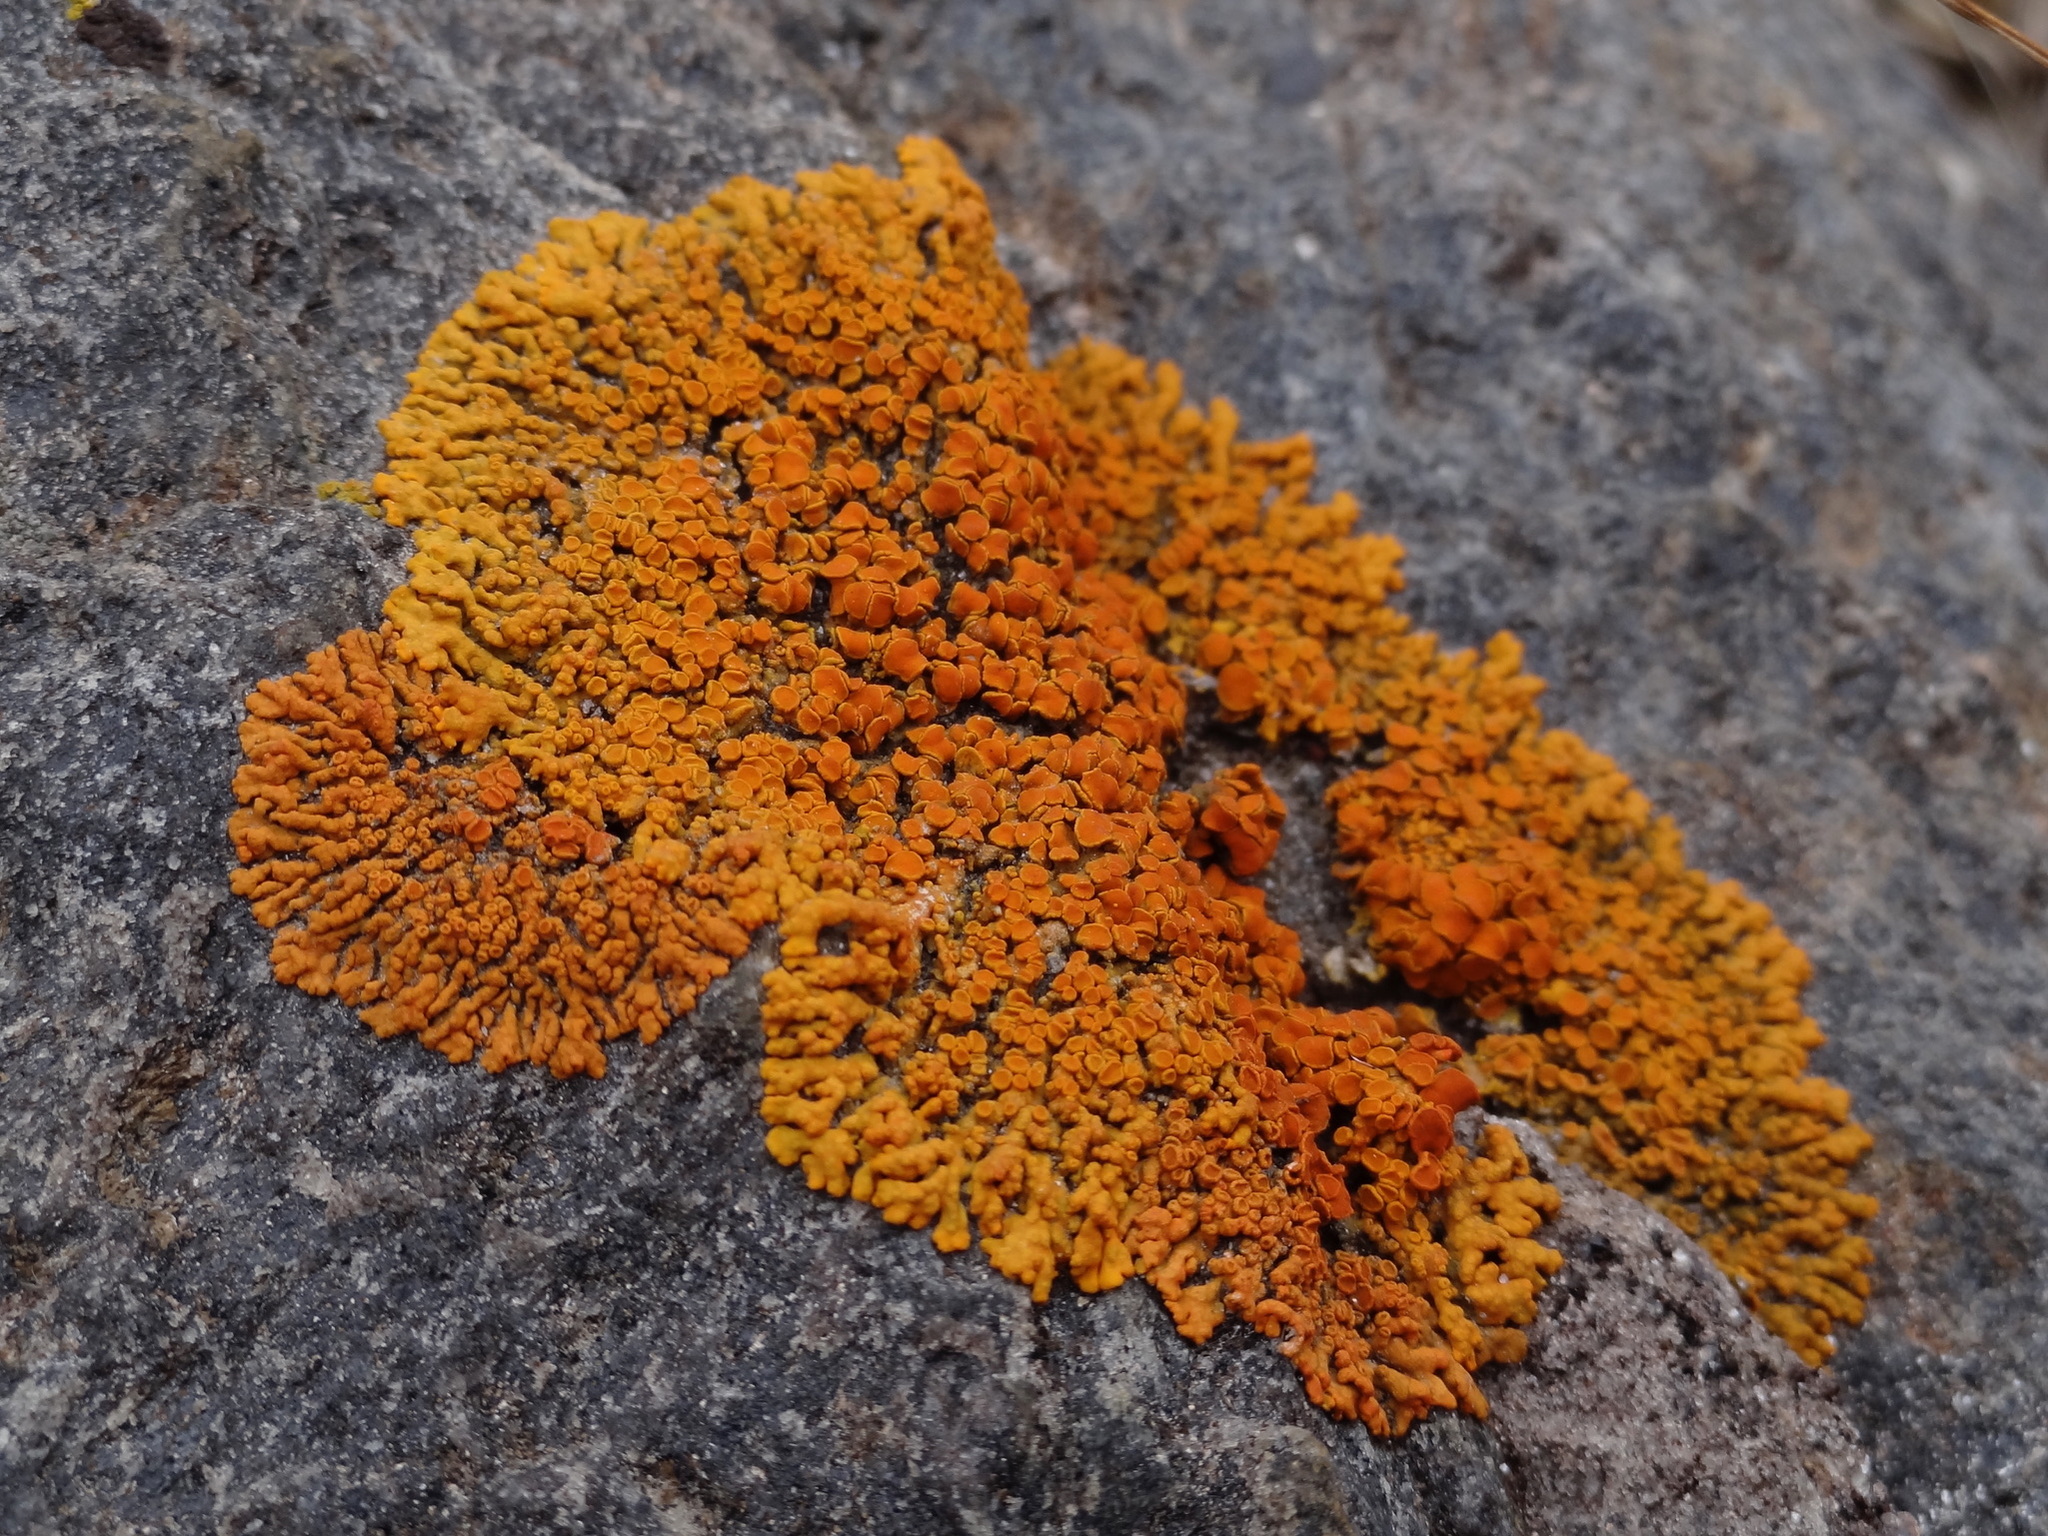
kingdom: Fungi
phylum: Ascomycota
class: Lecanoromycetes
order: Teloschistales
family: Teloschistaceae
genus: Xanthoria
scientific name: Xanthoria elegans
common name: Elegant sunburst lichen
